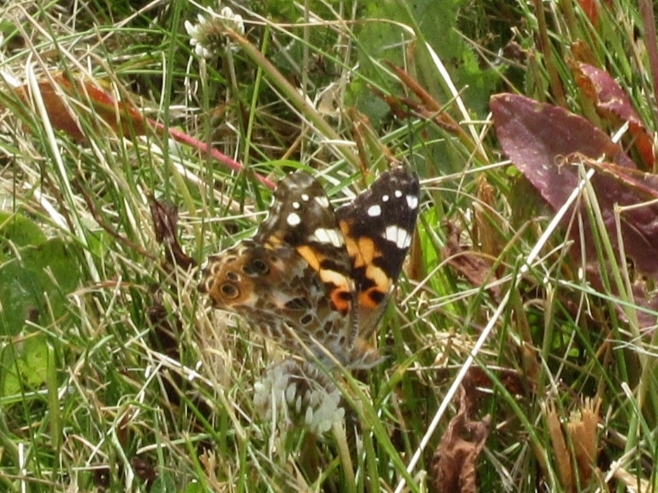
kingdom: Animalia
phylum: Arthropoda
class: Insecta
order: Lepidoptera
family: Nymphalidae
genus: Vanessa
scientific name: Vanessa cardui
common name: Painted lady
